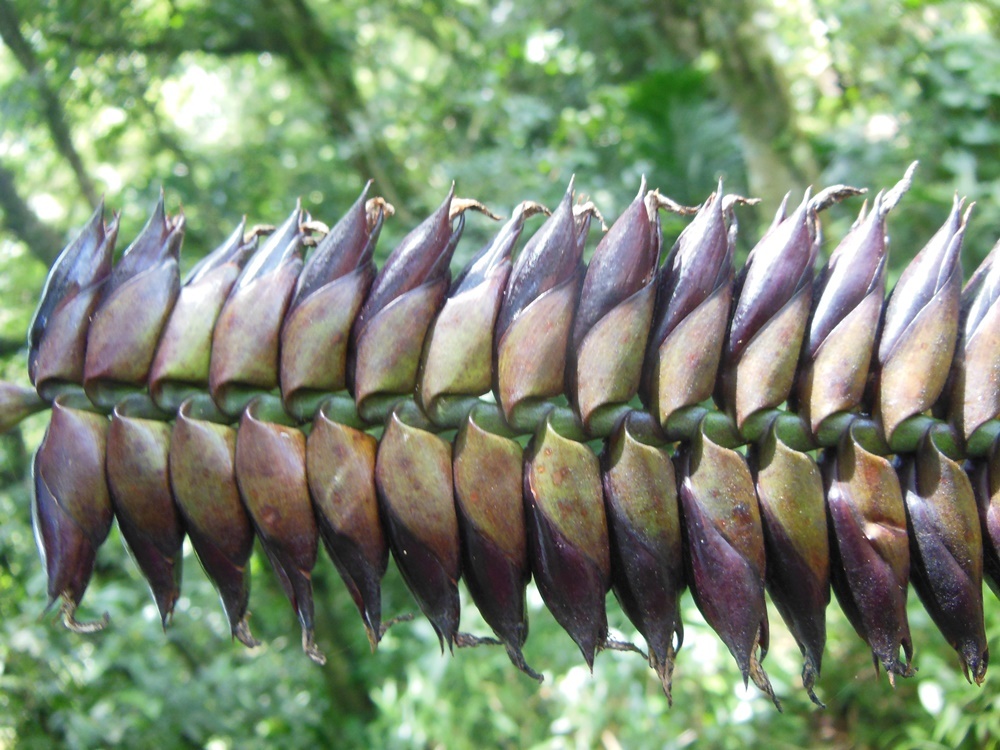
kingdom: Plantae
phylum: Tracheophyta
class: Liliopsida
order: Poales
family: Bromeliaceae
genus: Werauhia
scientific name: Werauhia pycnantha
